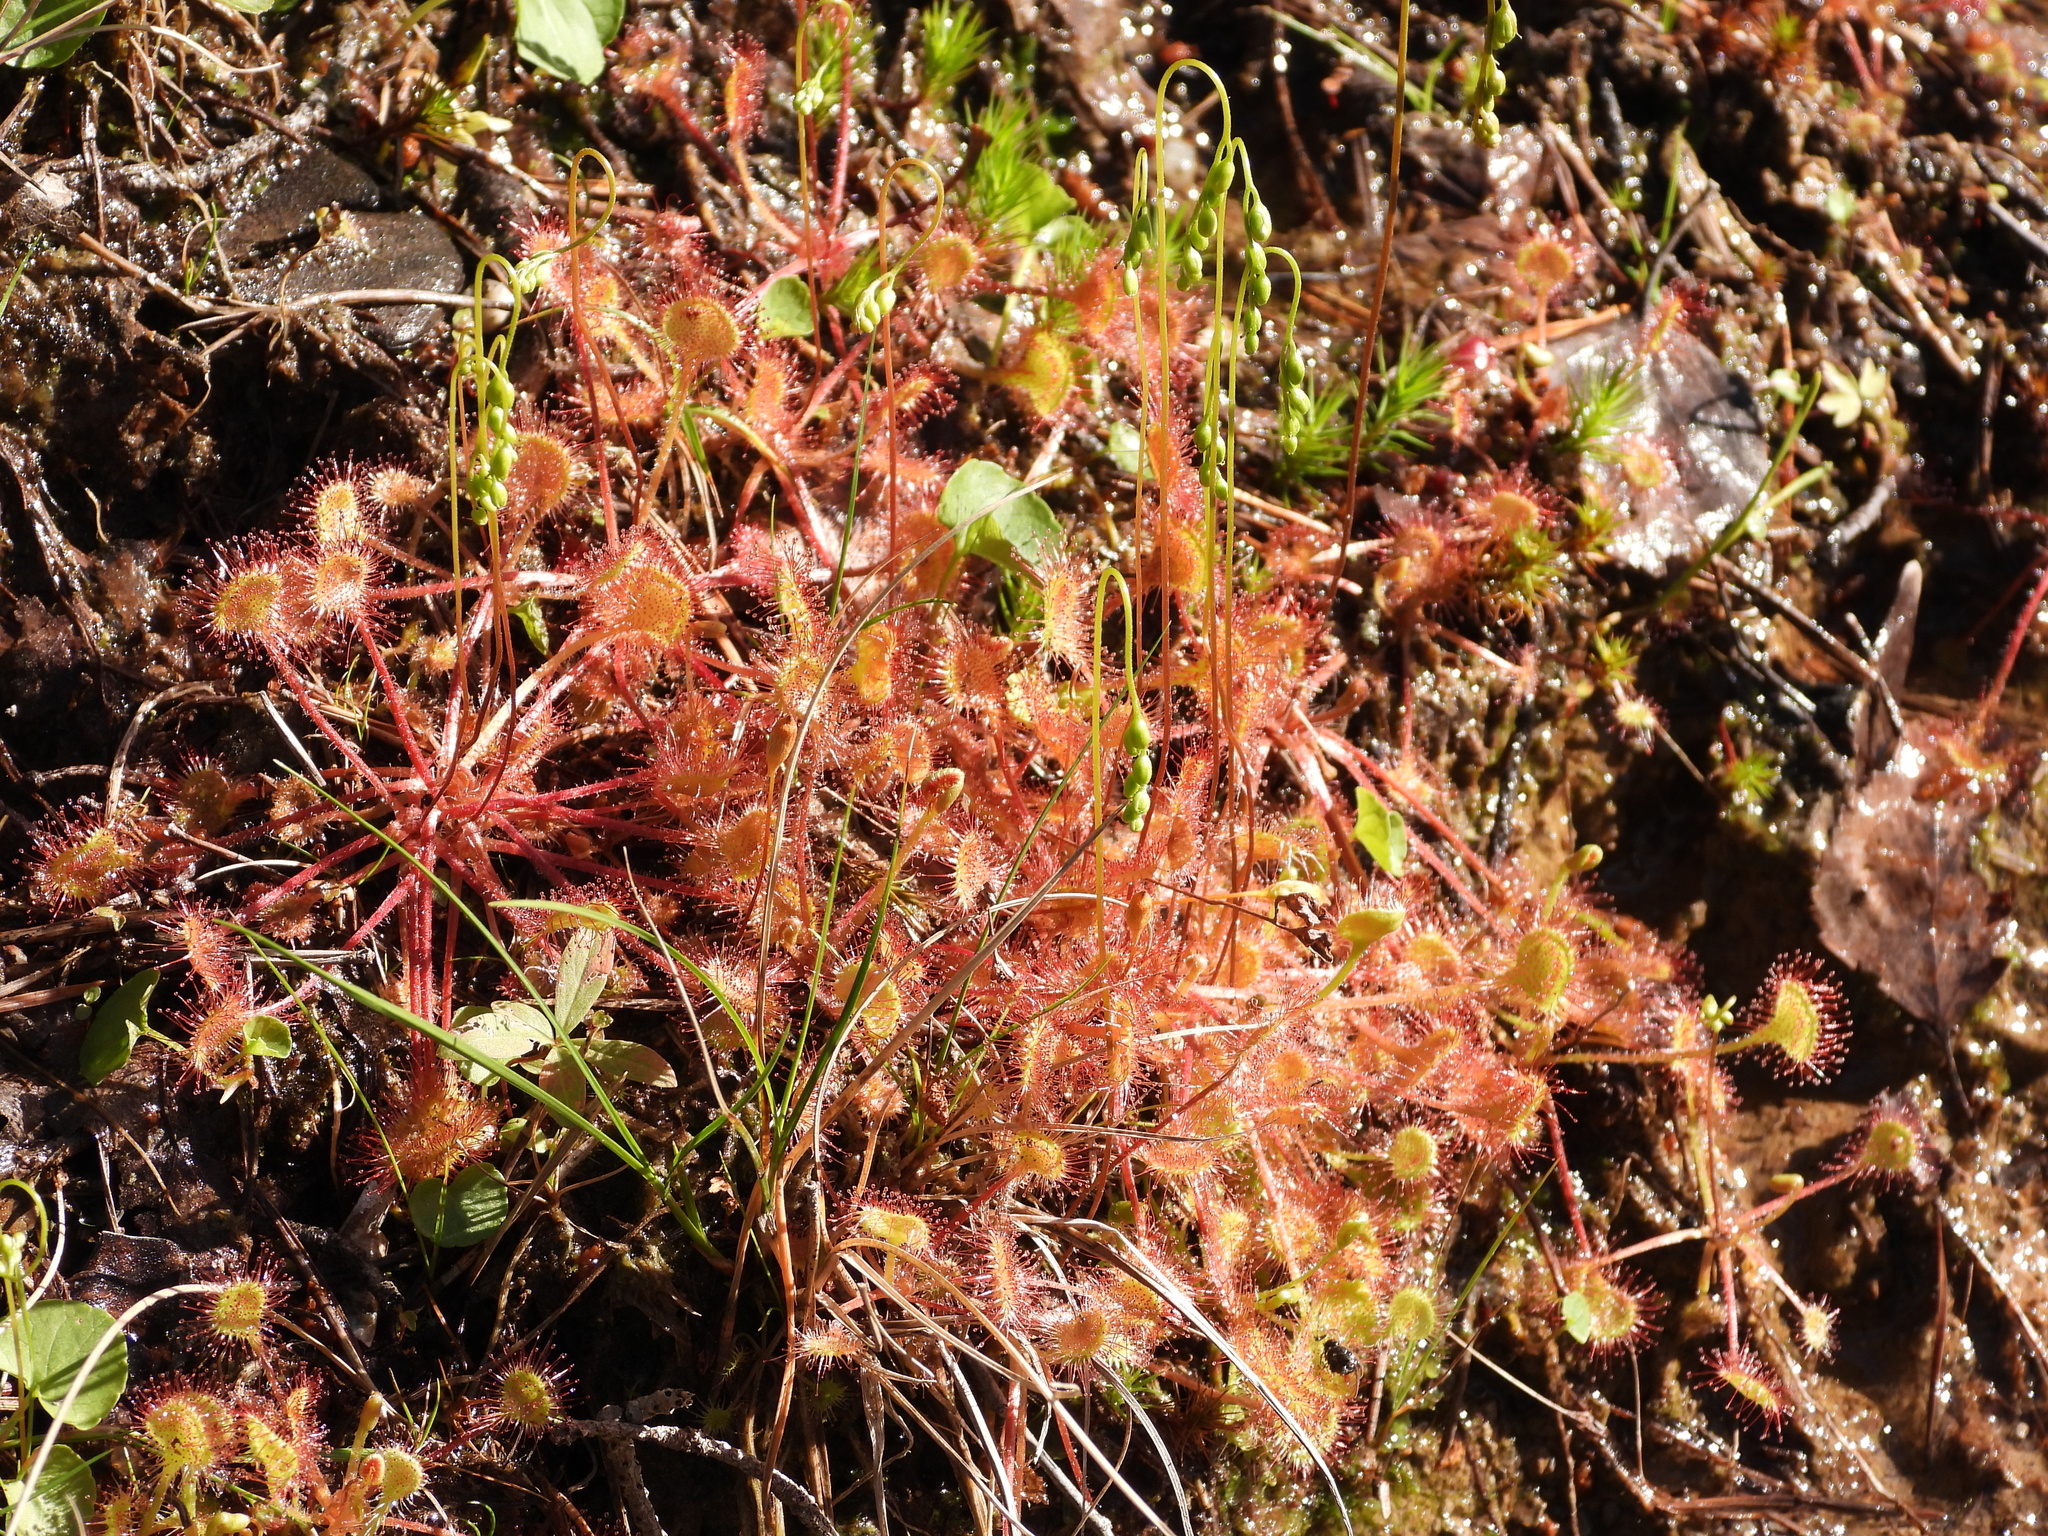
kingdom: Plantae
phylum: Tracheophyta
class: Magnoliopsida
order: Caryophyllales
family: Droseraceae
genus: Drosera
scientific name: Drosera rotundifolia
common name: Round-leaved sundew
